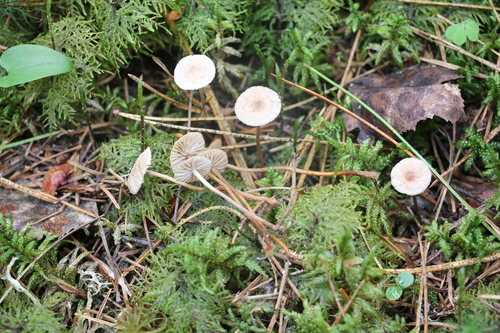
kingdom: Fungi
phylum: Basidiomycota
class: Agaricomycetes
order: Agaricales
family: Omphalotaceae
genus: Paragymnopus
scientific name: Paragymnopus perforans
